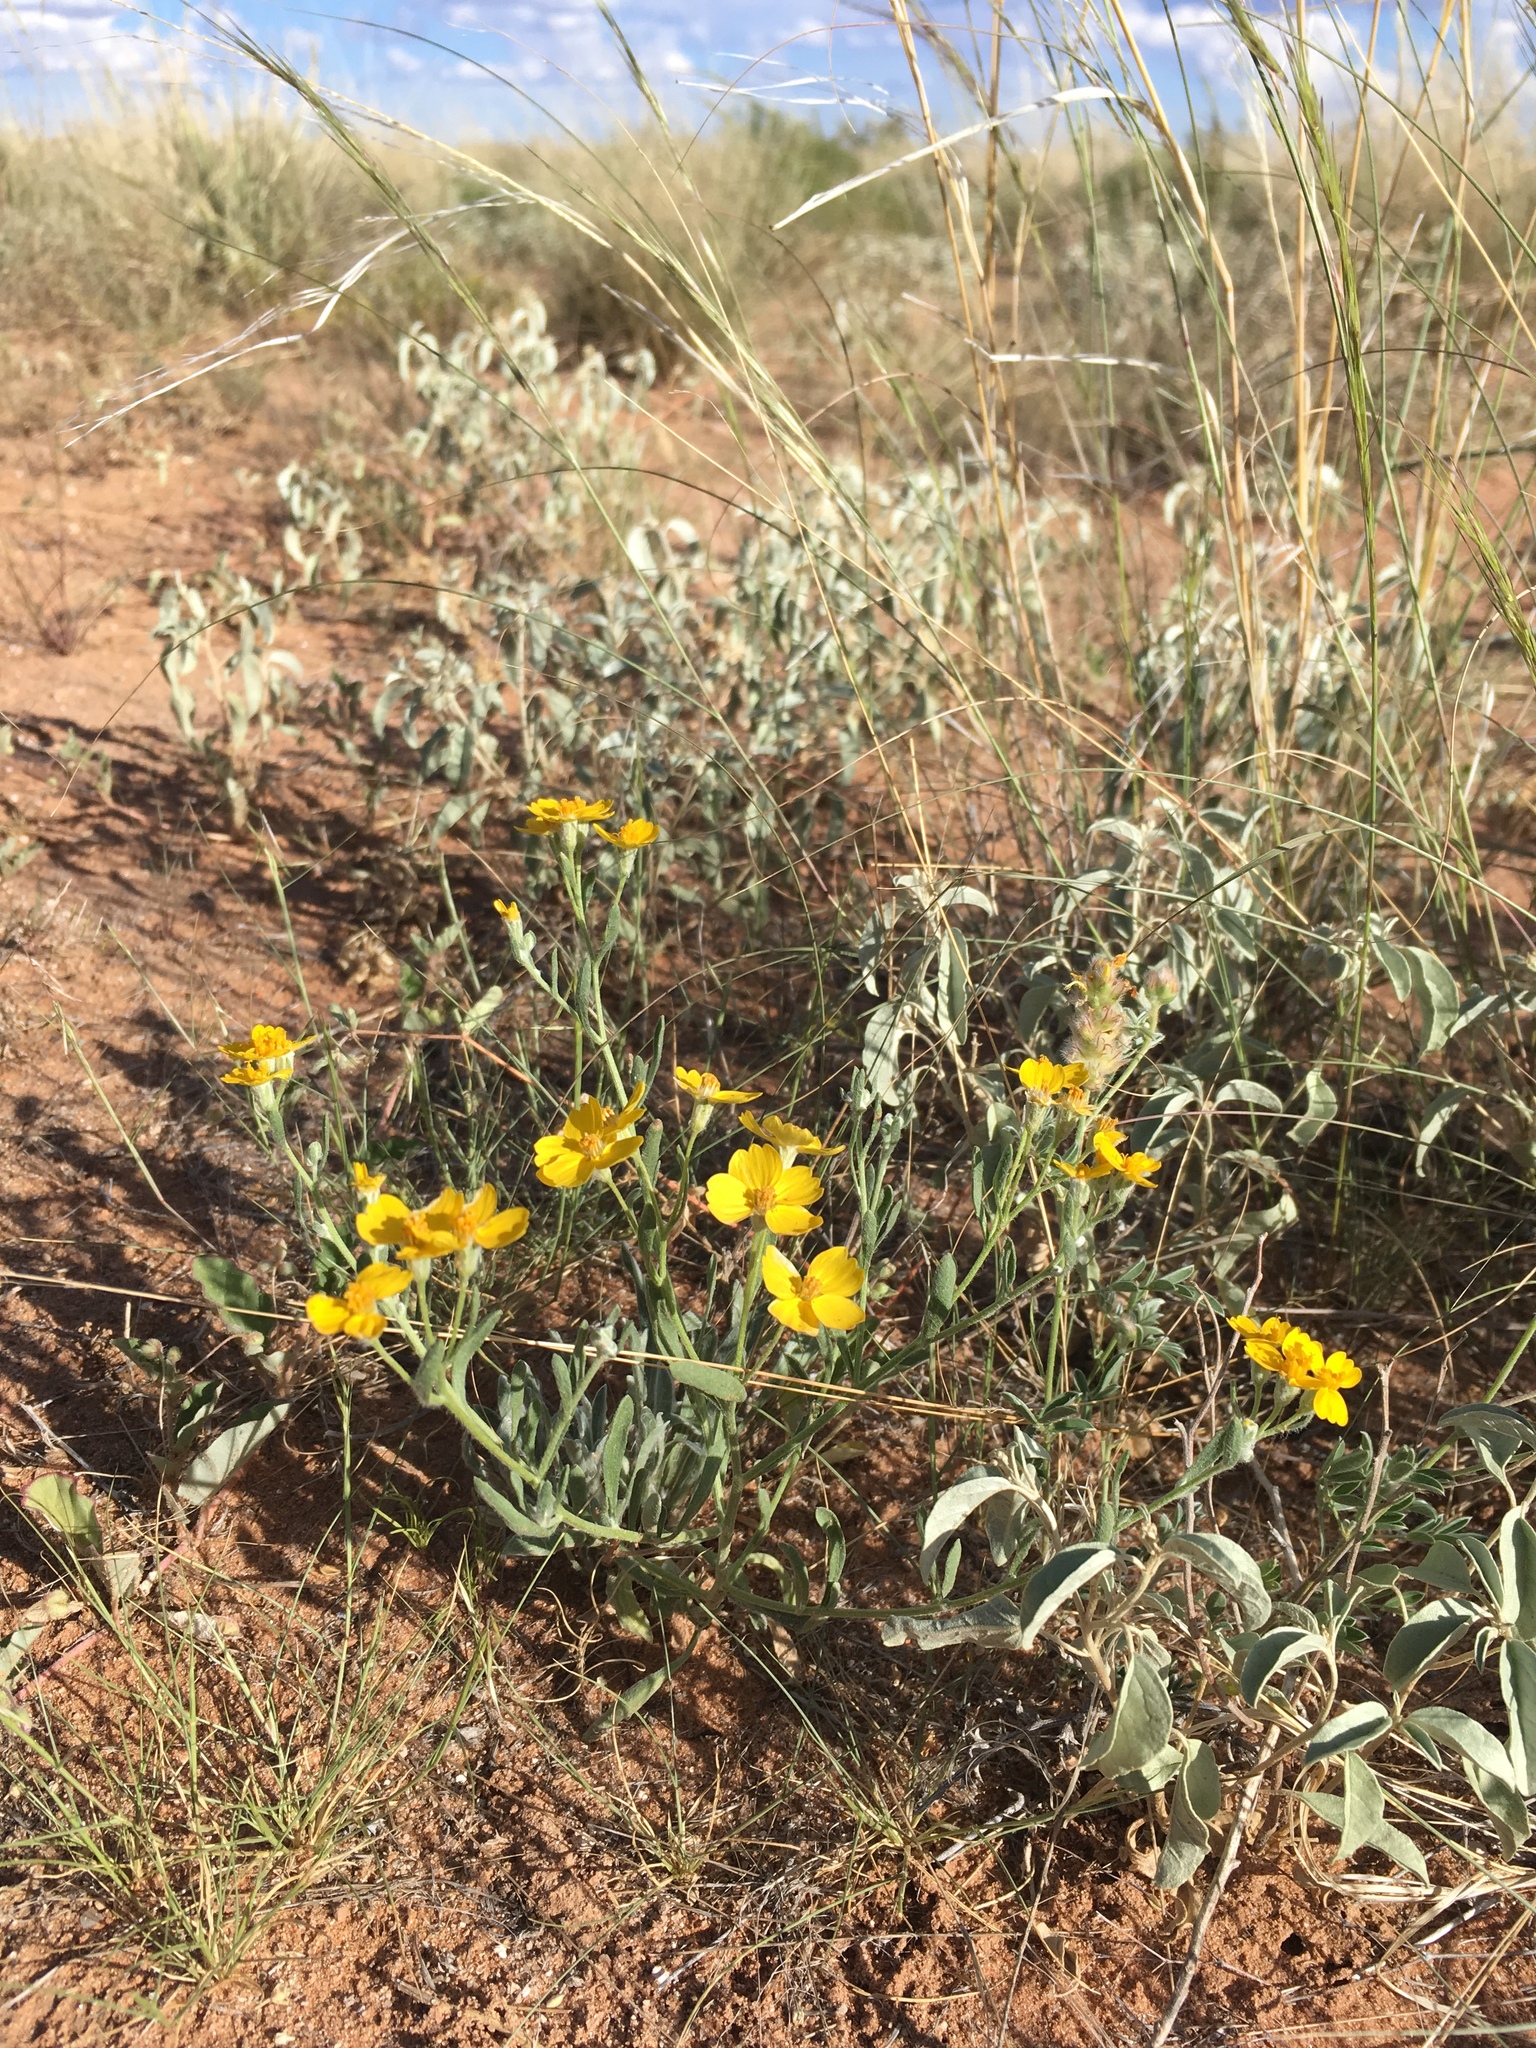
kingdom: Plantae
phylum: Tracheophyta
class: Magnoliopsida
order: Asterales
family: Asteraceae
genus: Psilostrophe
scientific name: Psilostrophe tagetina
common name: Marigold paper-flower
